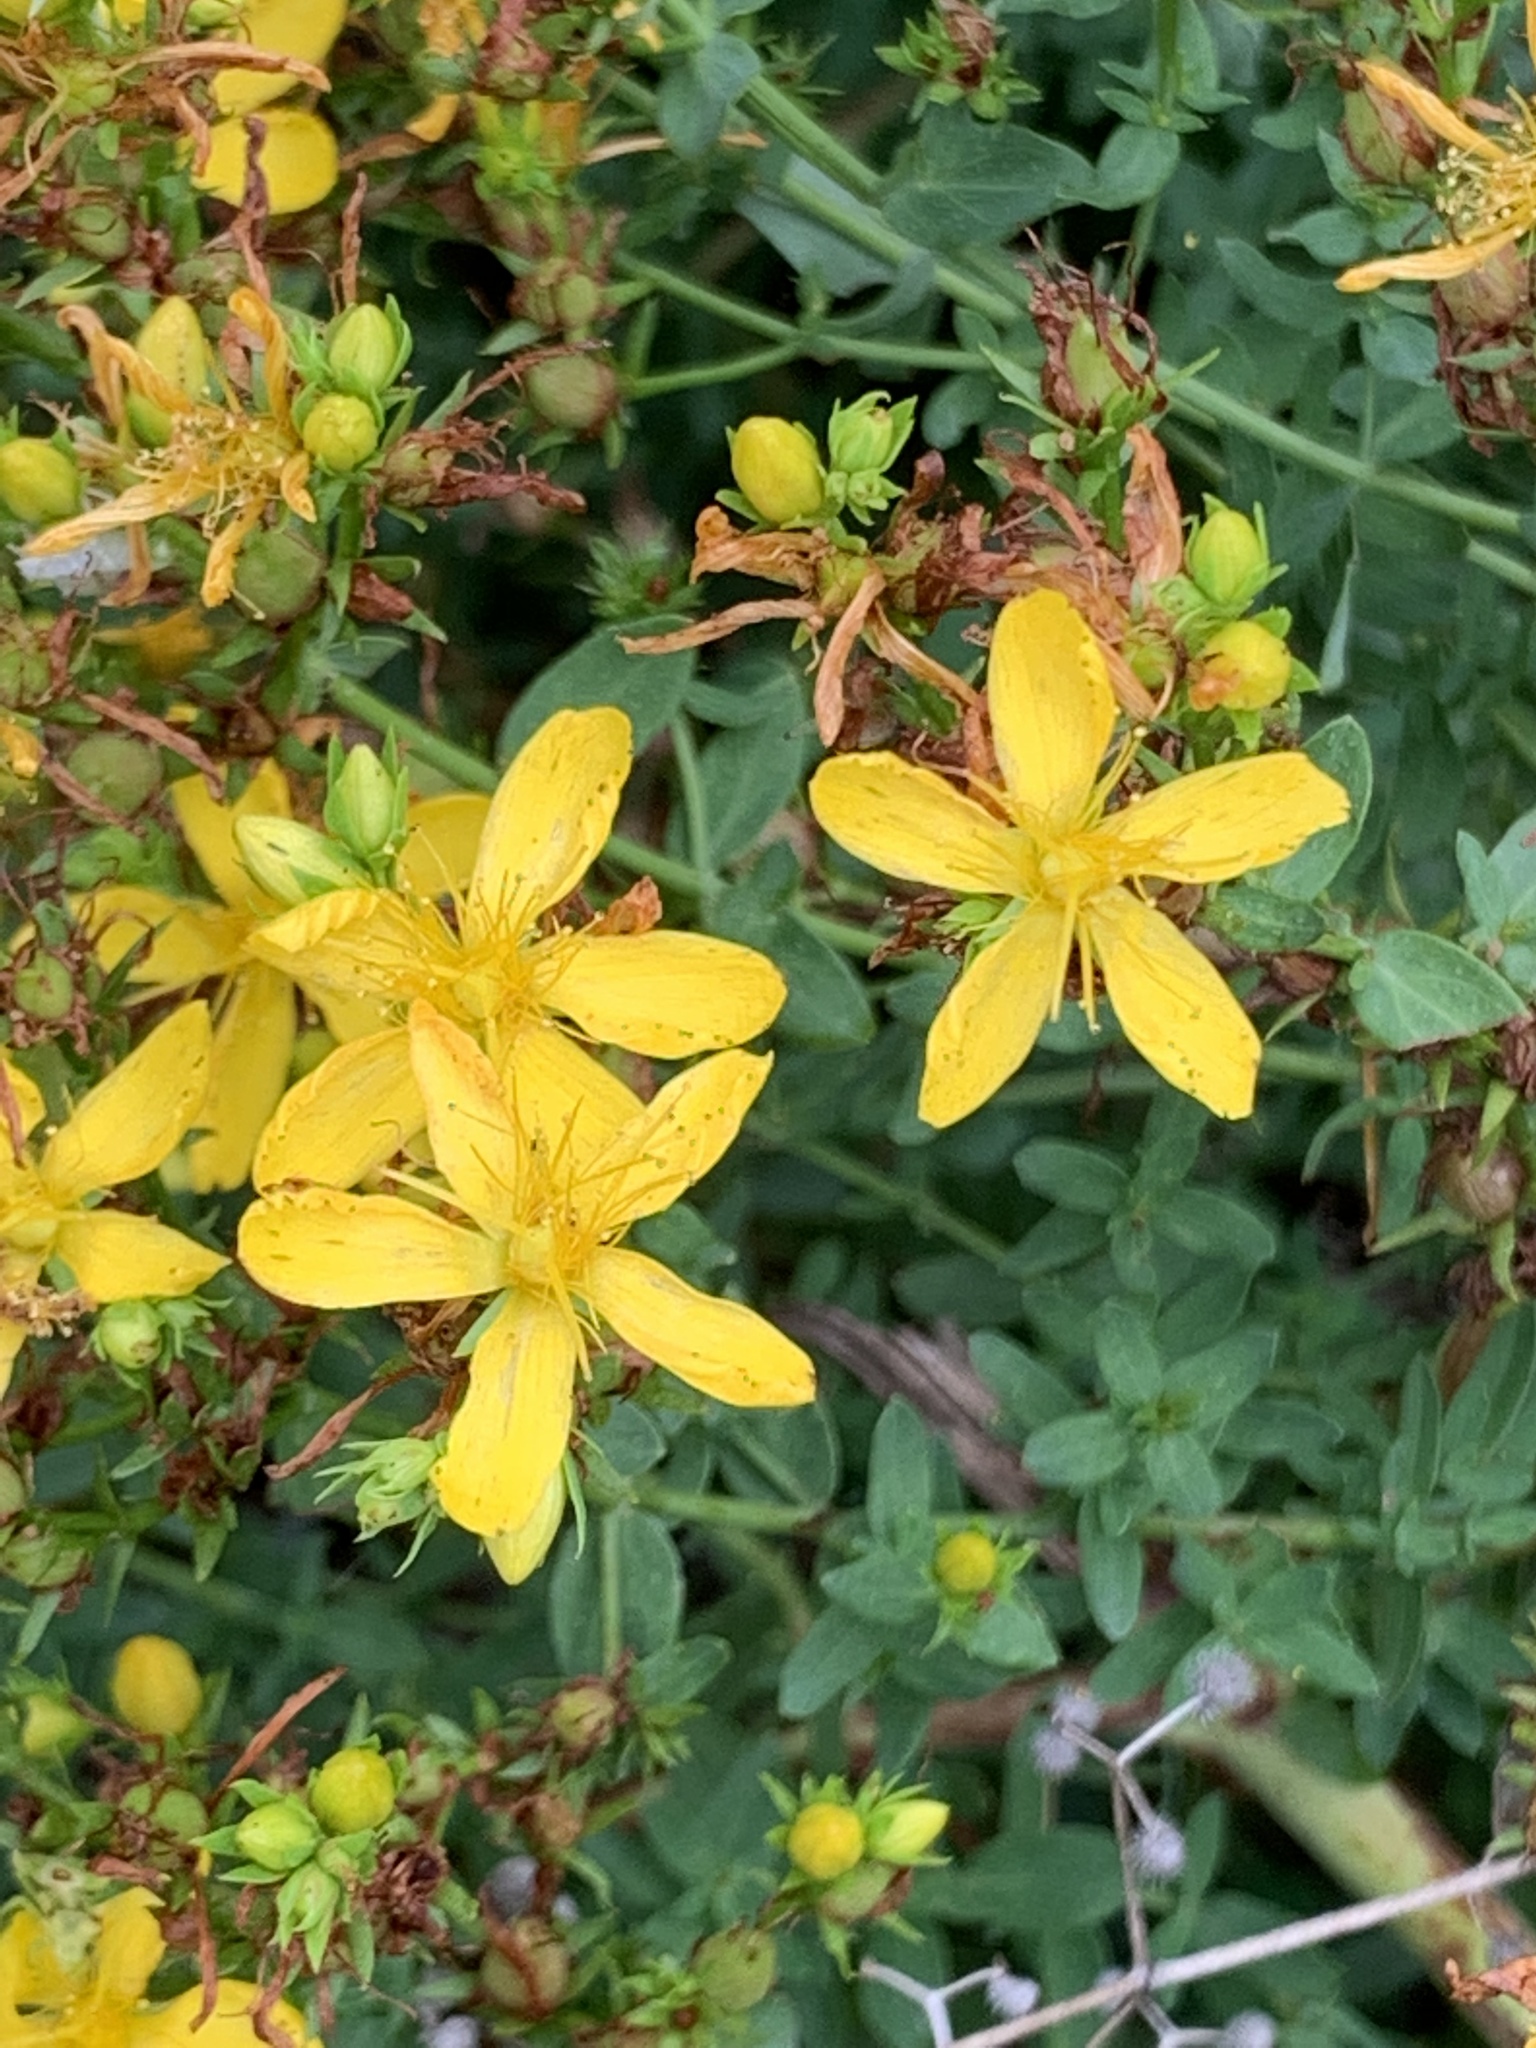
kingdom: Plantae
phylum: Tracheophyta
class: Magnoliopsida
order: Malpighiales
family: Hypericaceae
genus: Hypericum
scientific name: Hypericum perforatum
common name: Common st. johnswort
